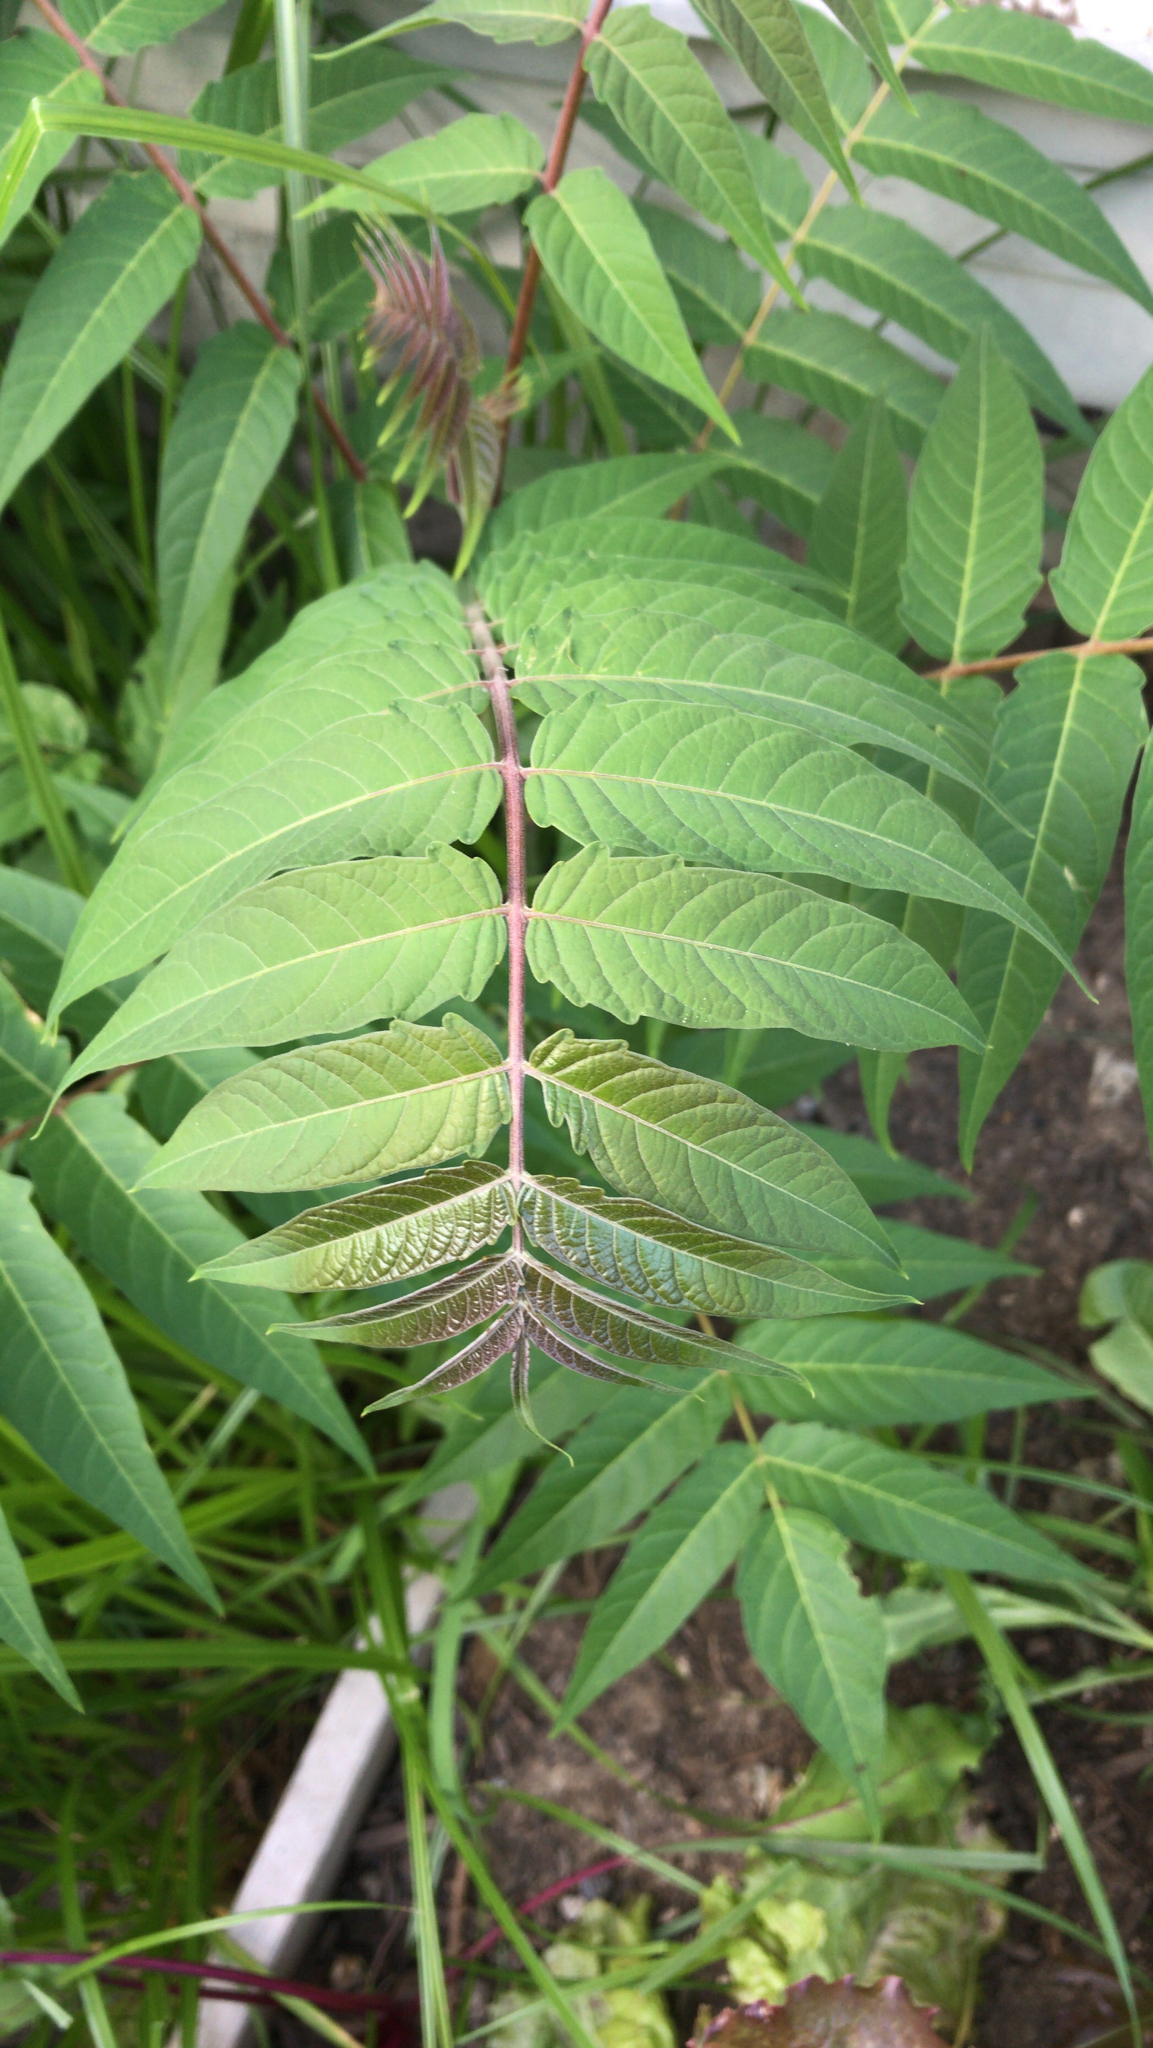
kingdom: Plantae
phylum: Tracheophyta
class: Magnoliopsida
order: Sapindales
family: Simaroubaceae
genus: Ailanthus
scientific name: Ailanthus altissima
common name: Tree-of-heaven
